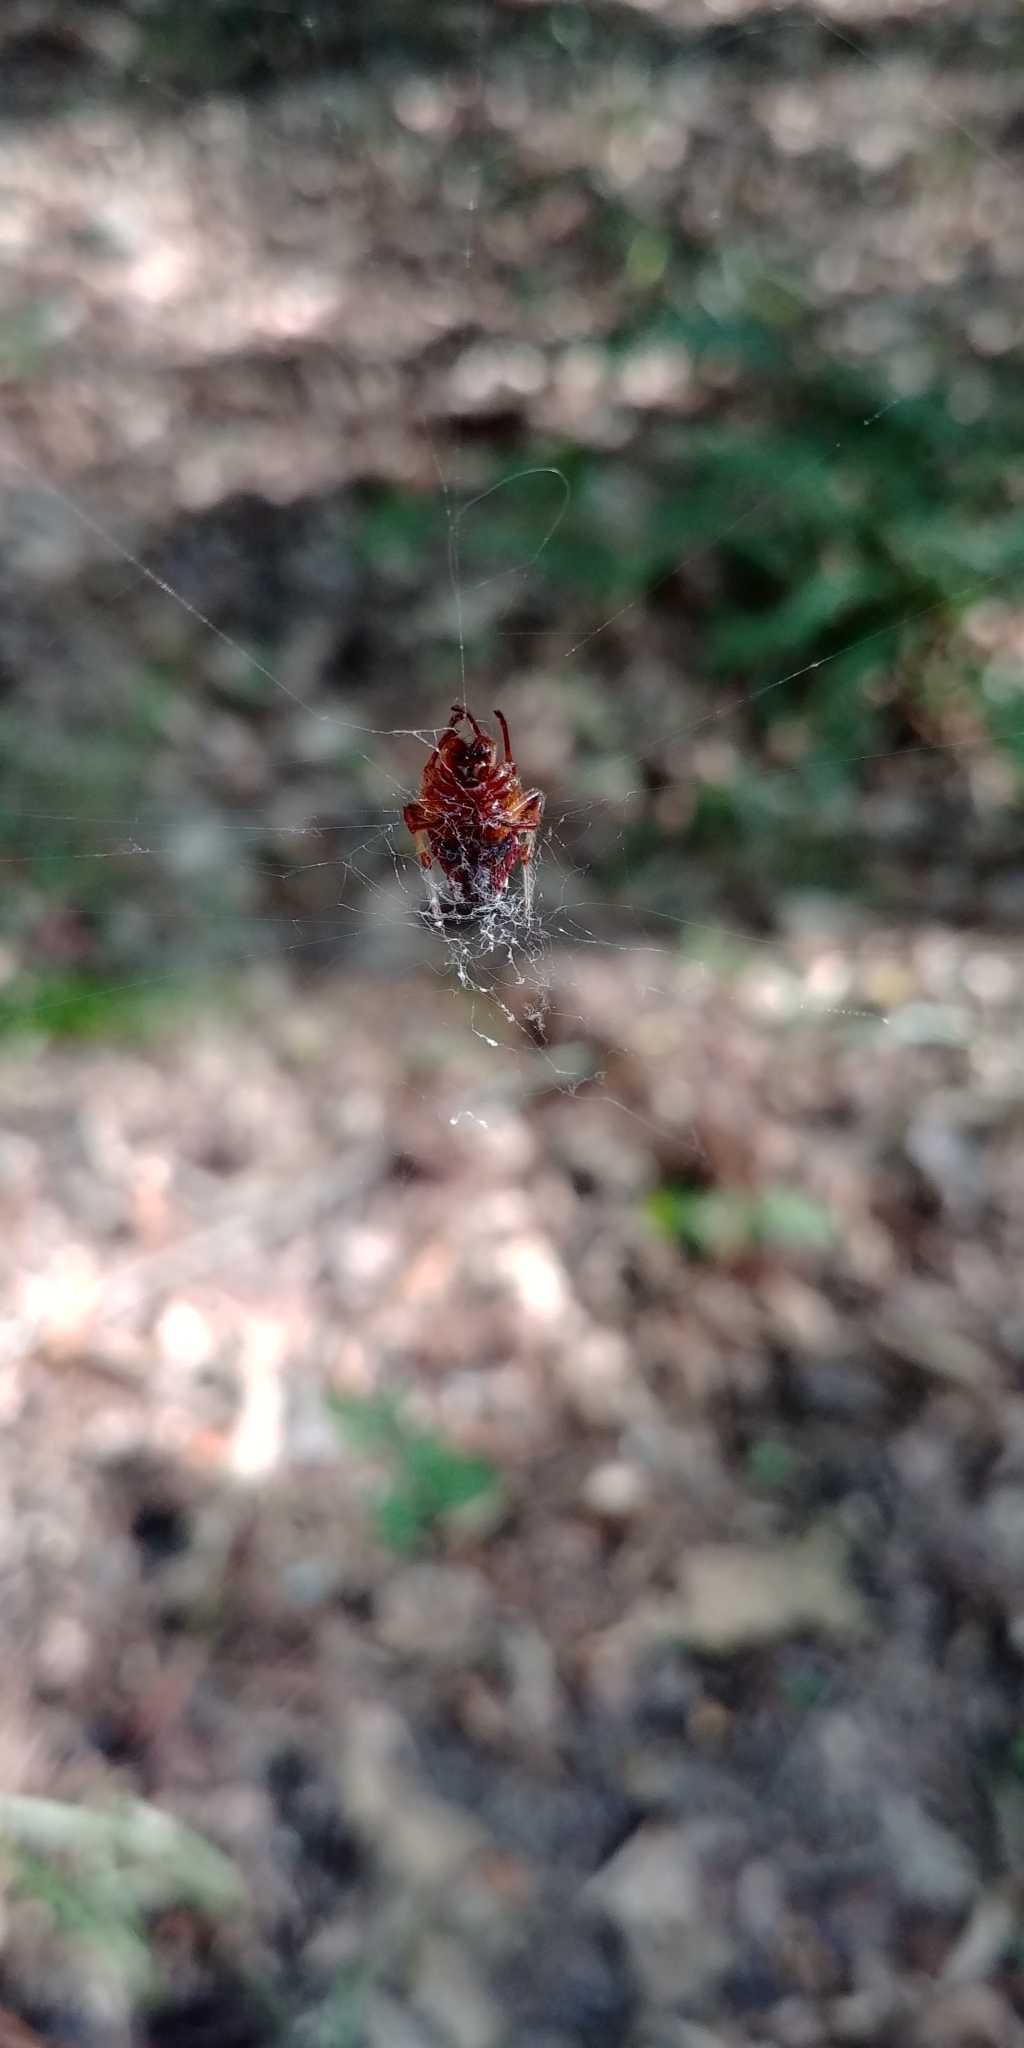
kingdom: Animalia
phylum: Arthropoda
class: Arachnida
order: Araneae
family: Araneidae
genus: Verrucosa
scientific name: Verrucosa arenata
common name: Orb weavers
